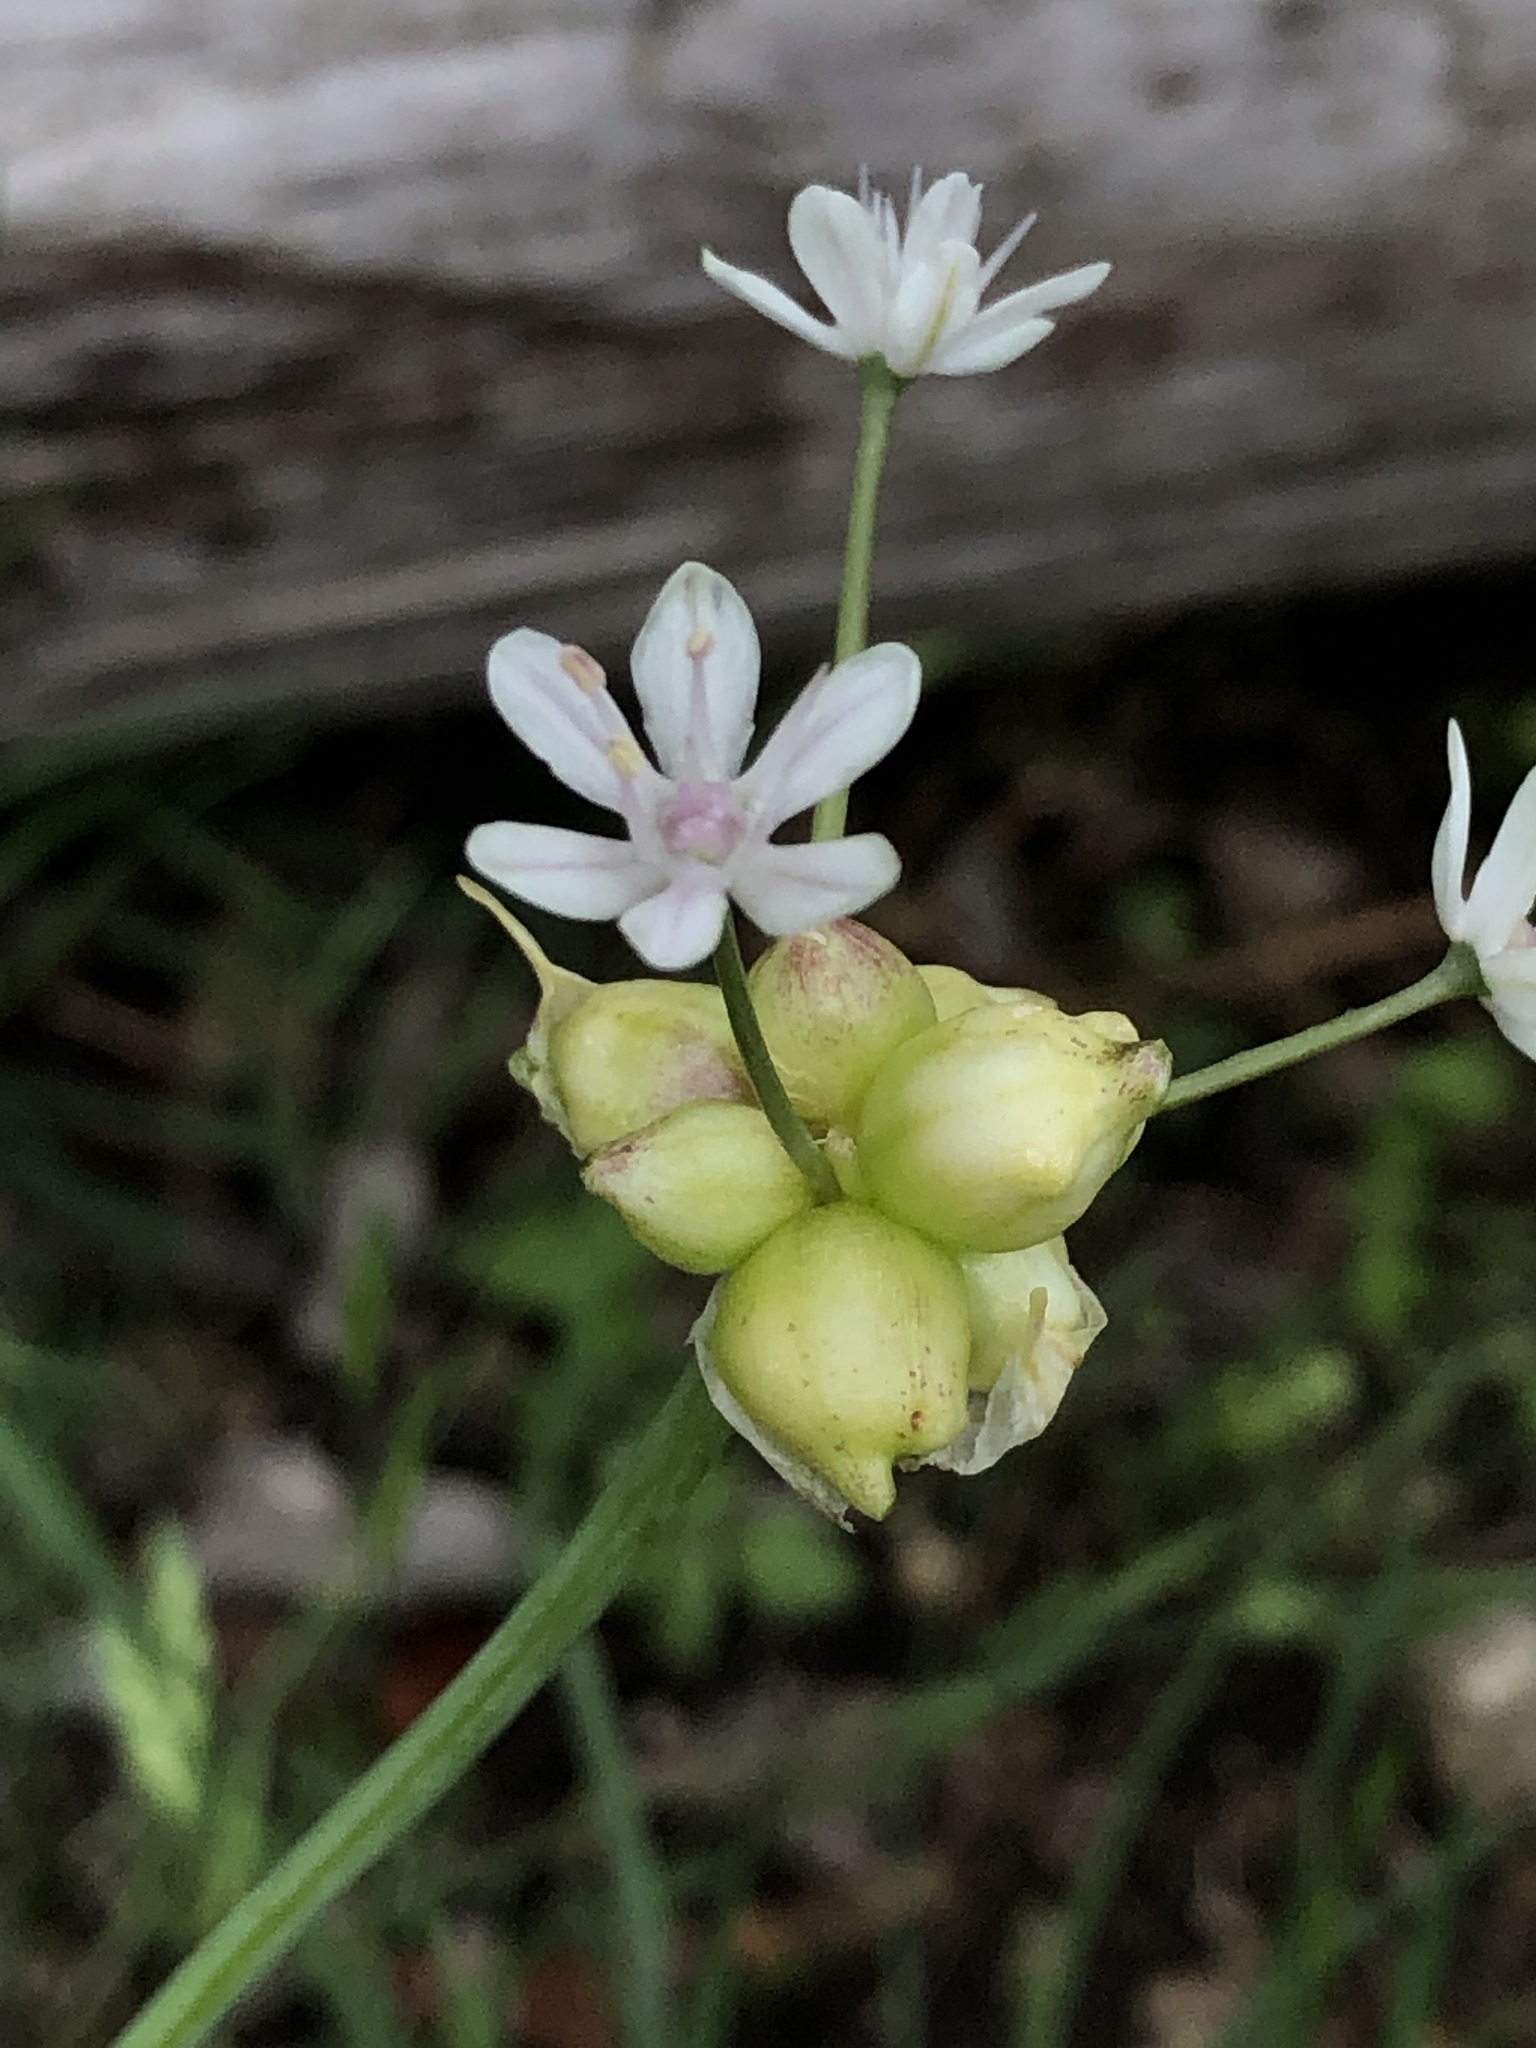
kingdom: Plantae
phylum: Tracheophyta
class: Liliopsida
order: Asparagales
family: Amaryllidaceae
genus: Allium
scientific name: Allium canadense
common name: Meadow garlic
